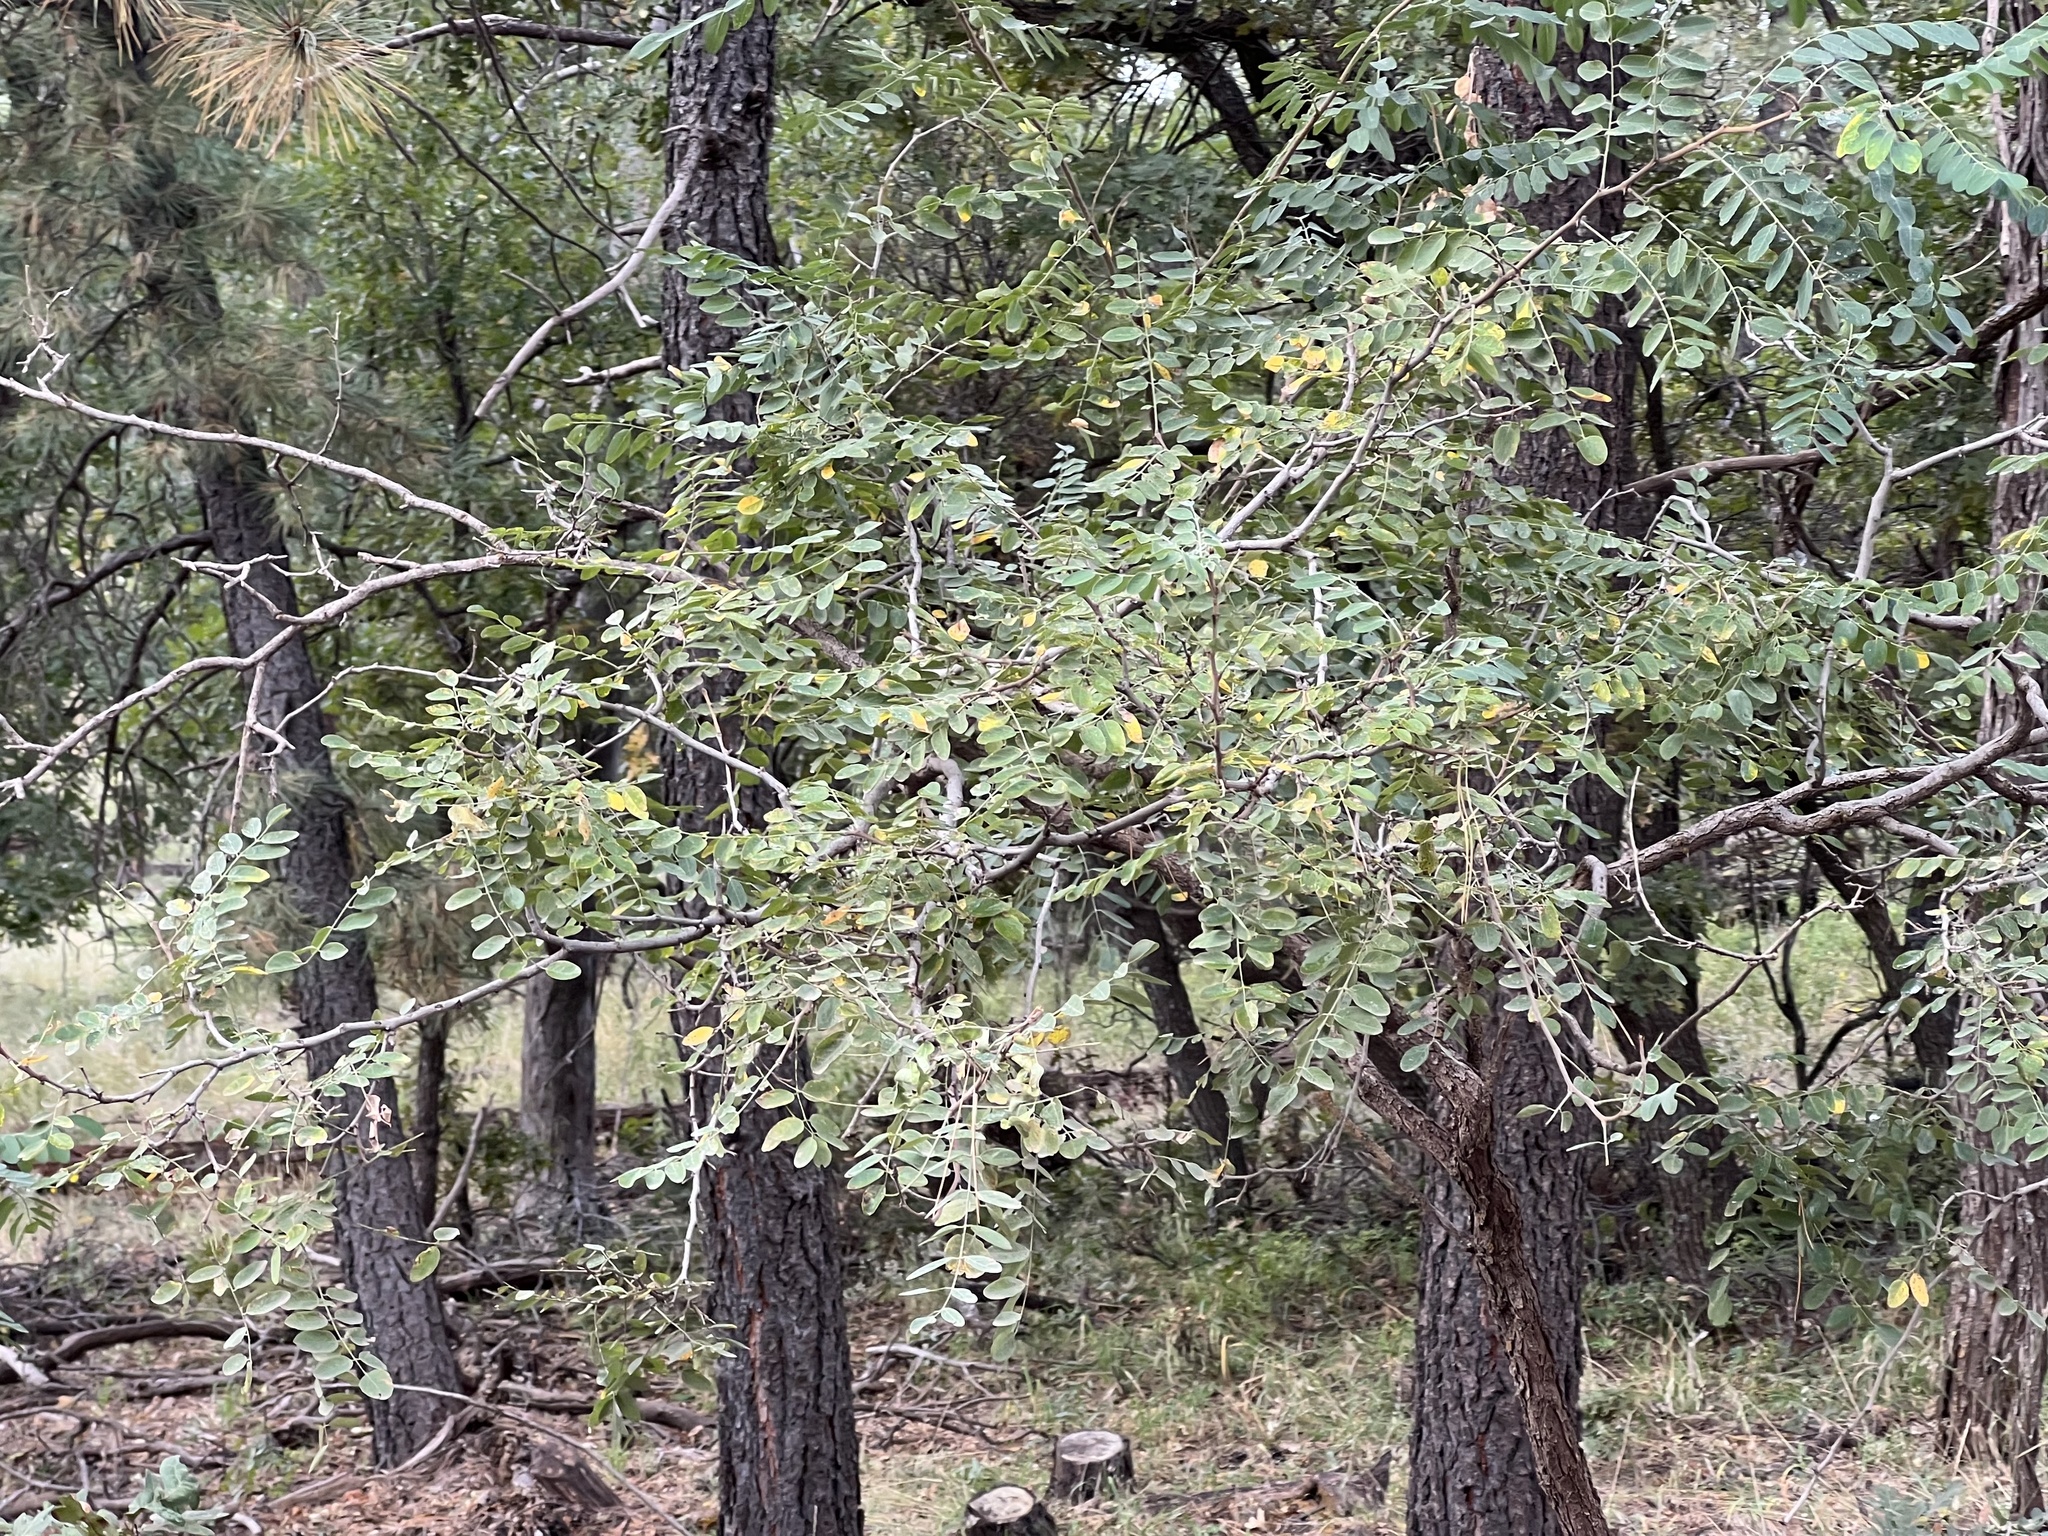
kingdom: Plantae
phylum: Tracheophyta
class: Magnoliopsida
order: Fabales
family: Fabaceae
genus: Robinia
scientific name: Robinia neomexicana
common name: New mexico locust
